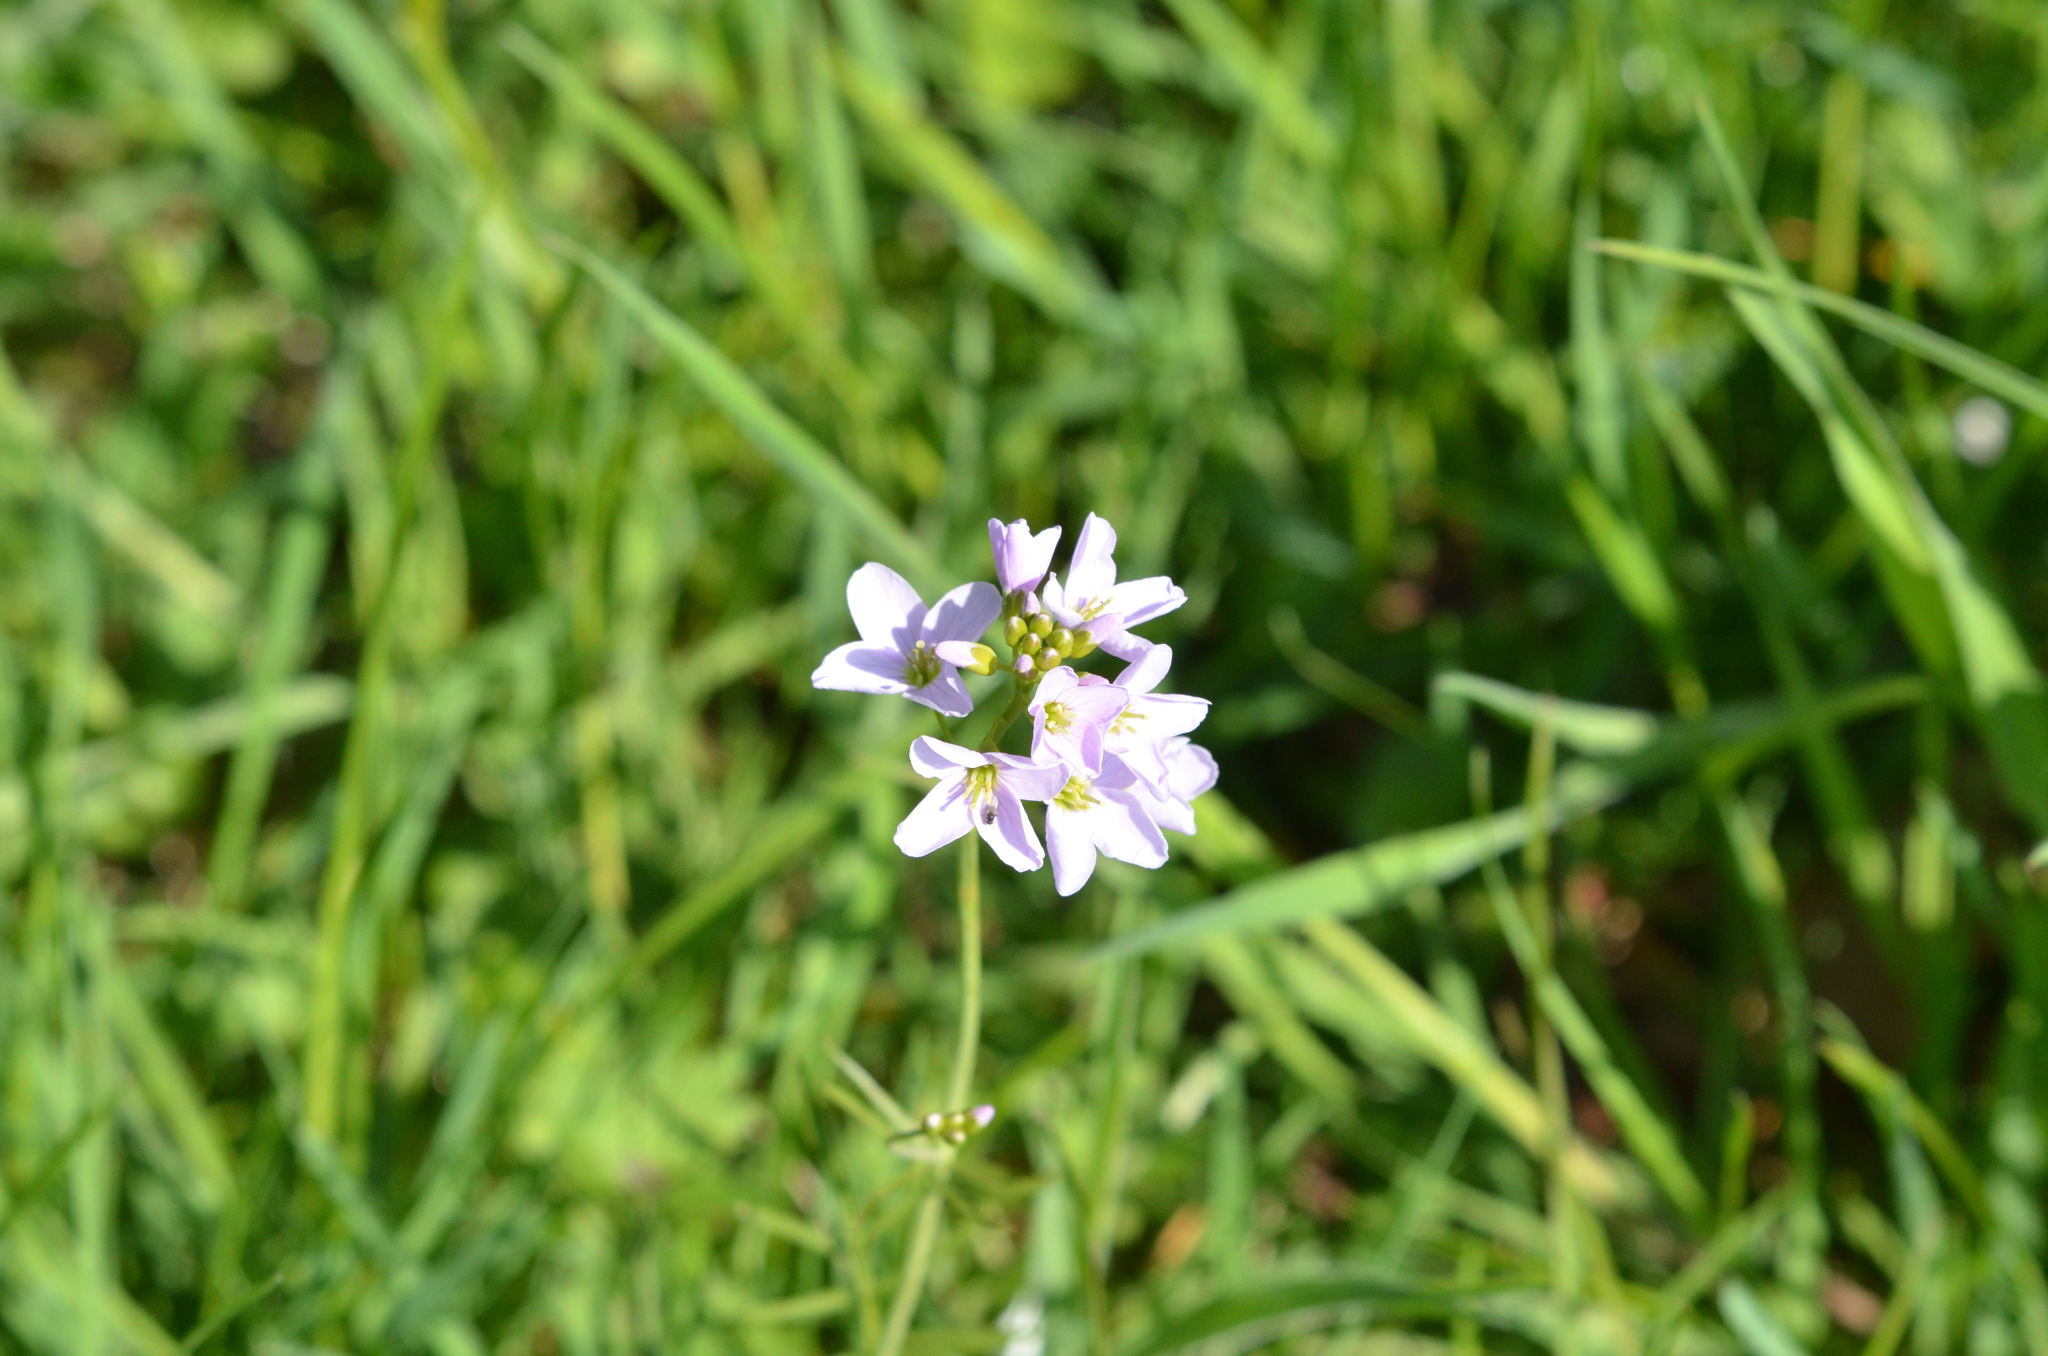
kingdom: Plantae
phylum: Tracheophyta
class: Magnoliopsida
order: Brassicales
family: Brassicaceae
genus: Cardamine
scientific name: Cardamine pratensis
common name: Cuckoo flower
